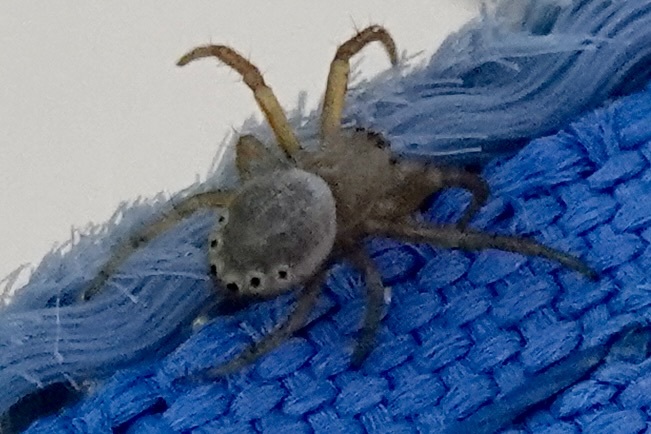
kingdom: Animalia
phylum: Arthropoda
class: Arachnida
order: Araneae
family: Araneidae
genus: Araniella
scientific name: Araniella displicata
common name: Sixspotted orb weaver
